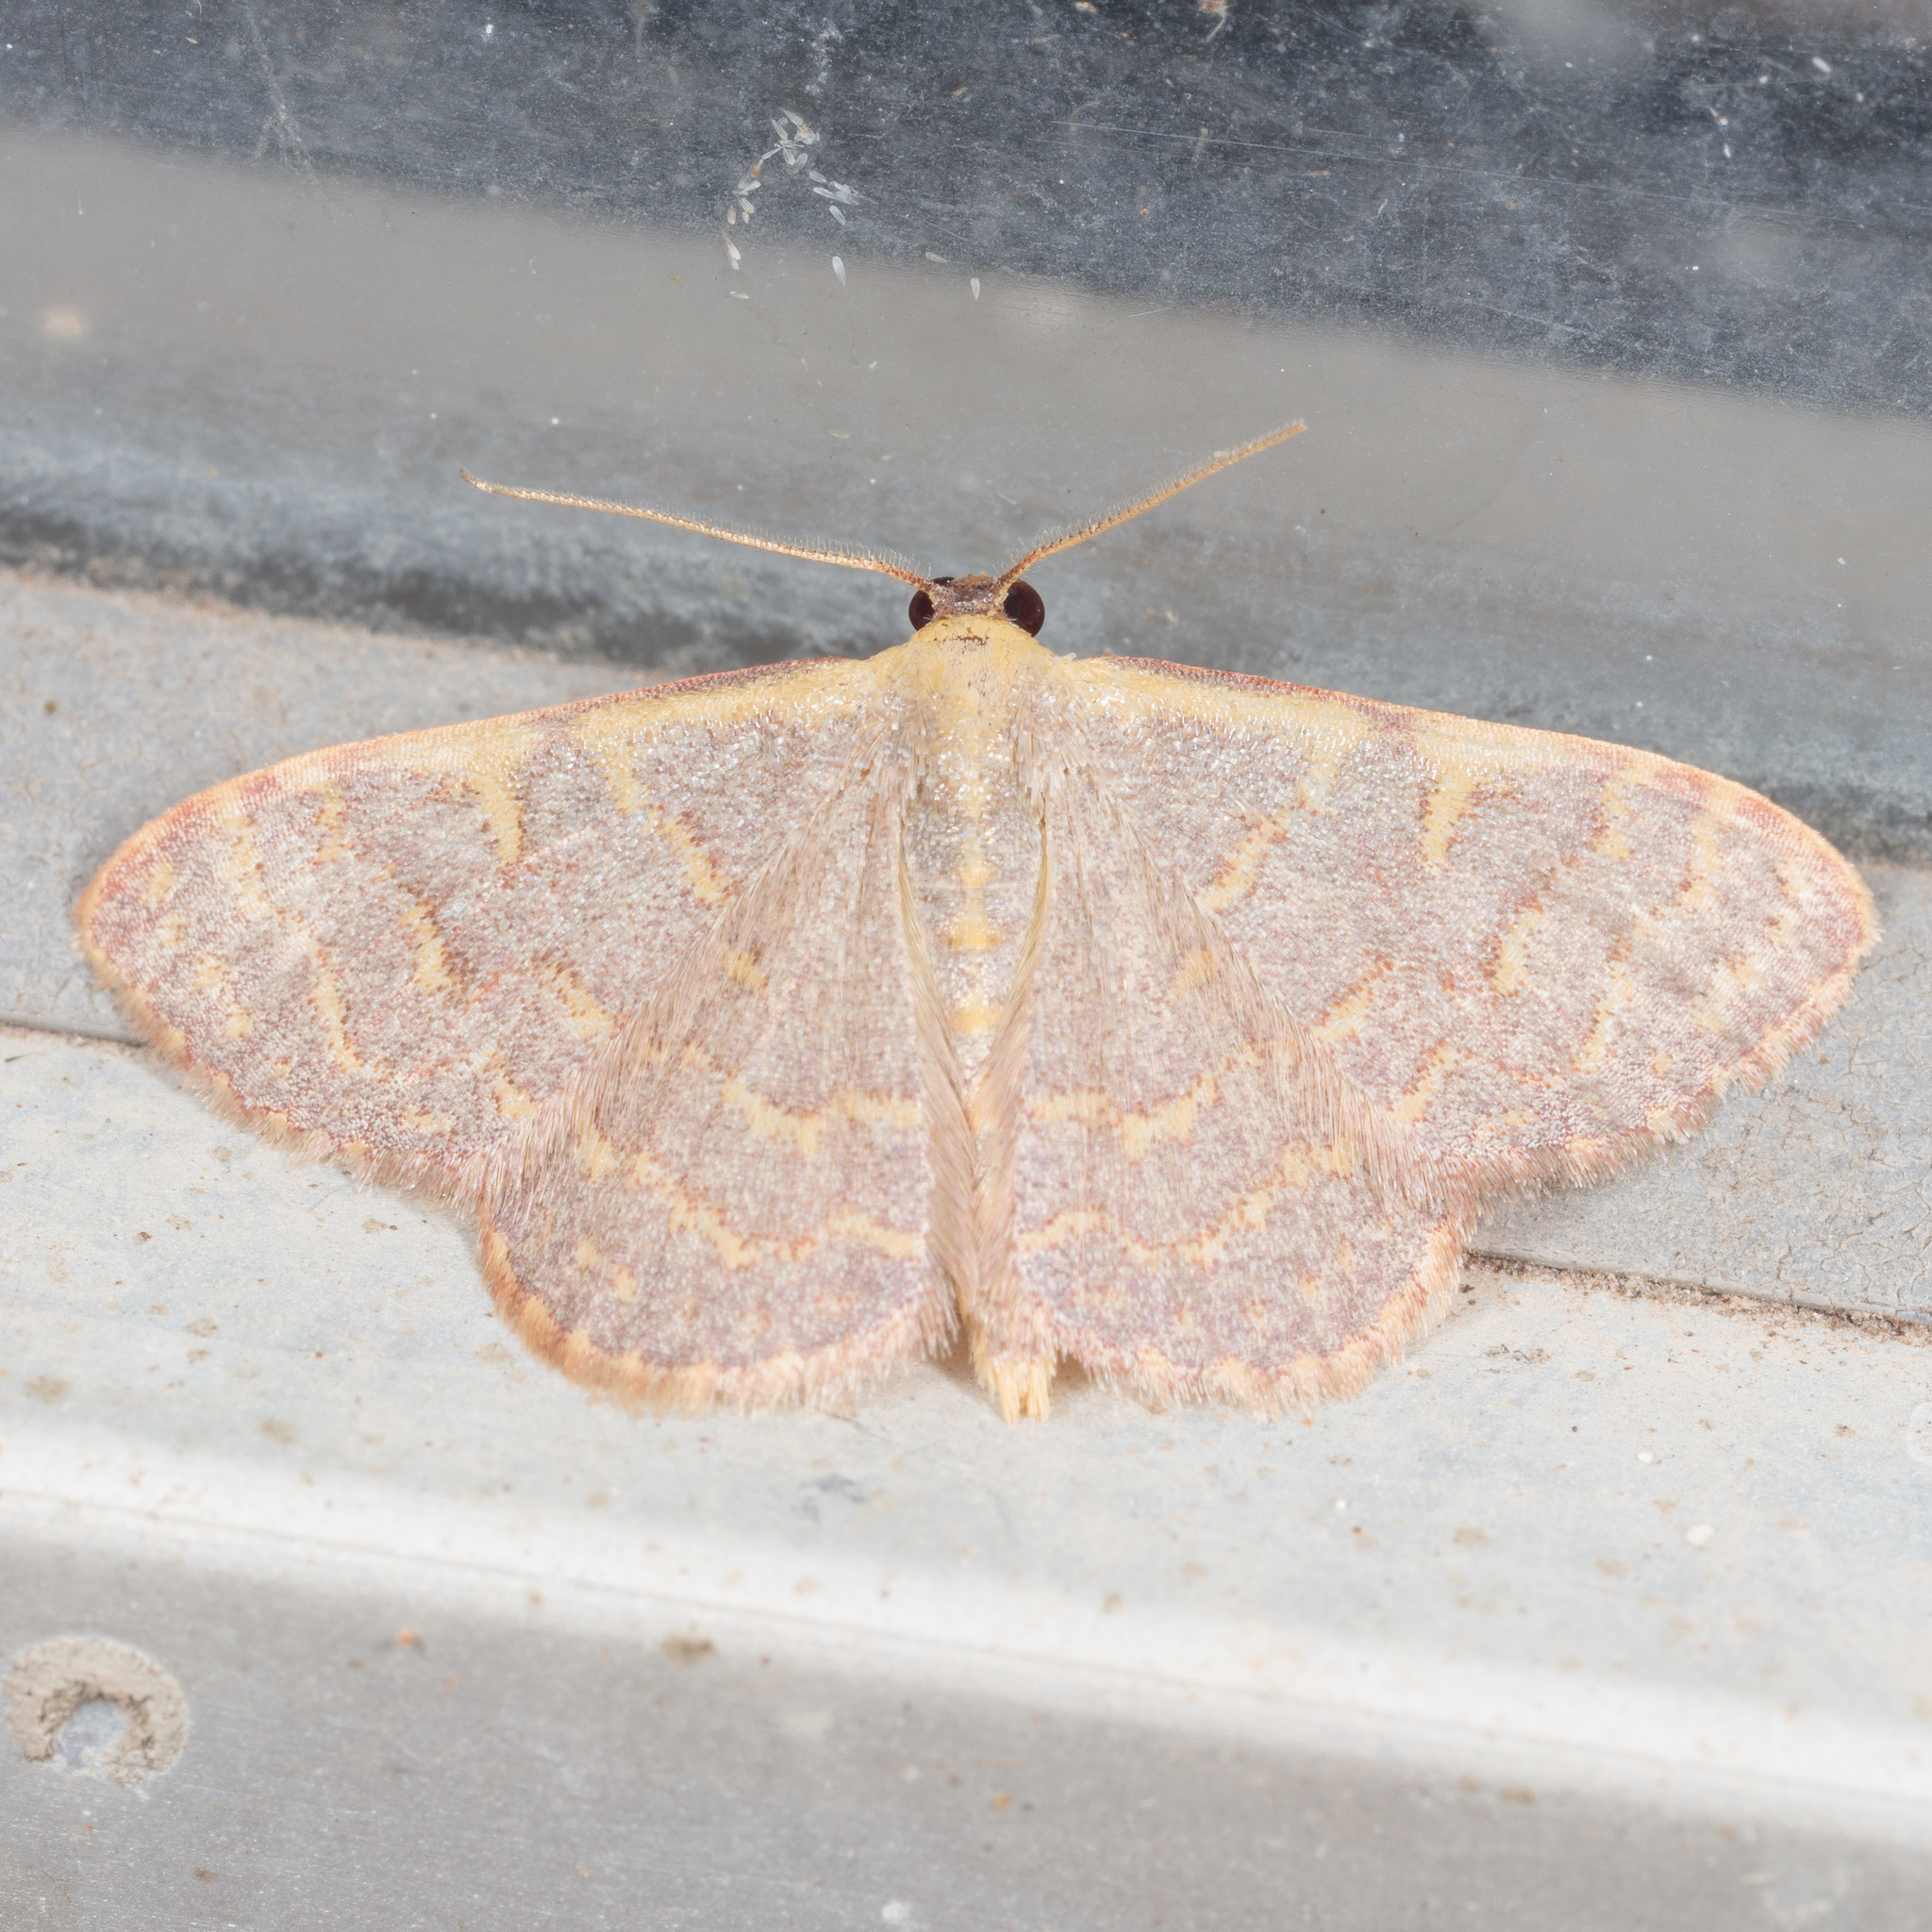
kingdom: Animalia
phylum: Arthropoda
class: Insecta
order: Lepidoptera
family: Geometridae
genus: Leptostales
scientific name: Leptostales pannaria
